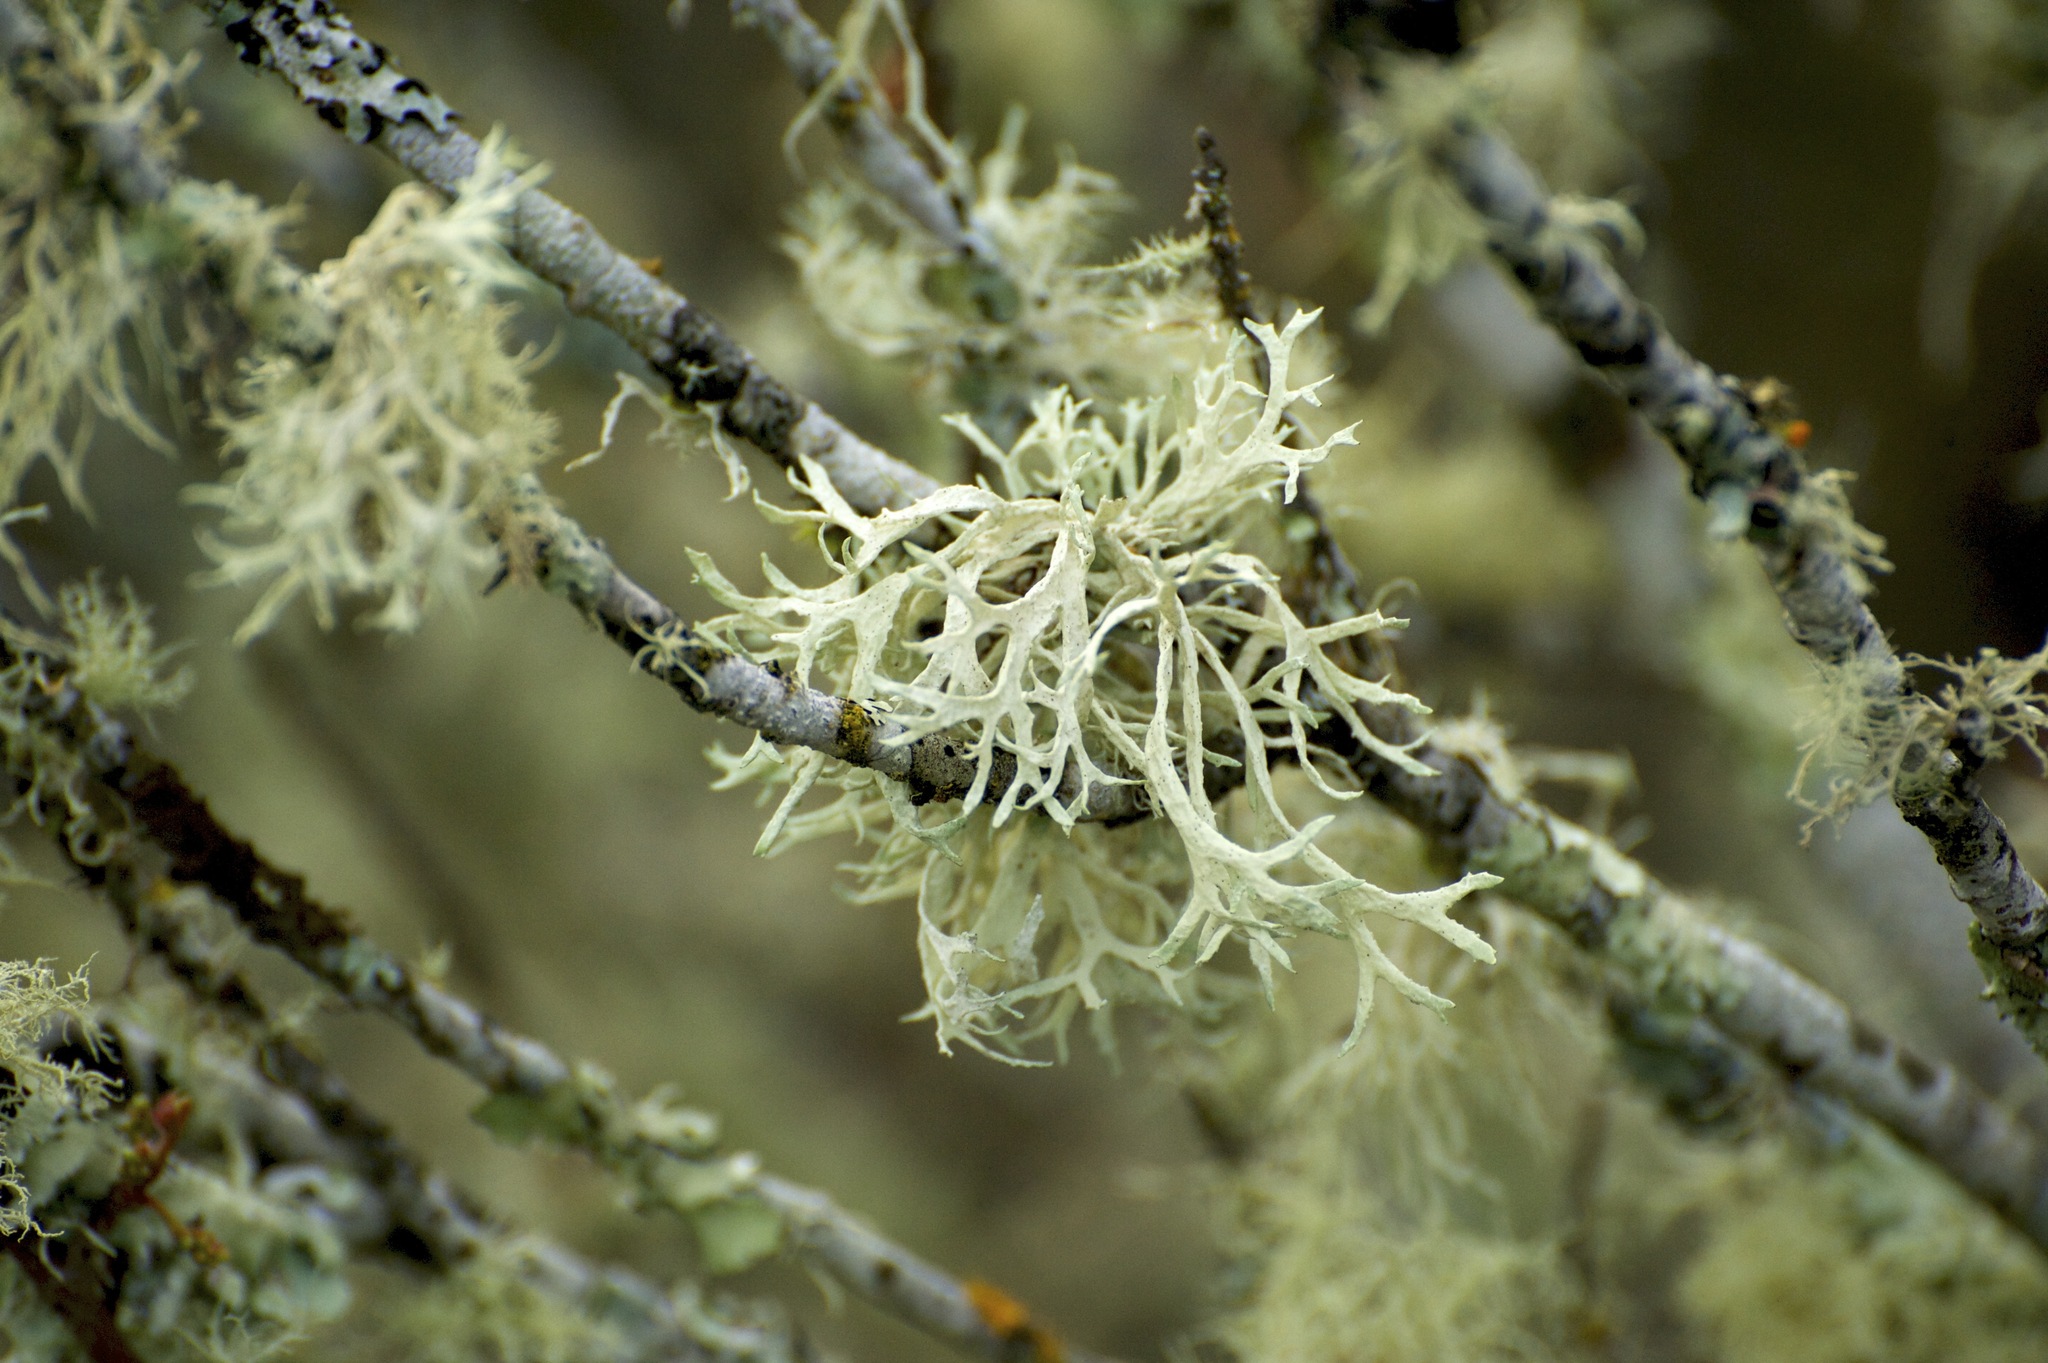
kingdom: Fungi
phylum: Ascomycota
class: Lecanoromycetes
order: Lecanorales
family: Parmeliaceae
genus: Evernia
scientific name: Evernia prunastri
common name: Oak moss
